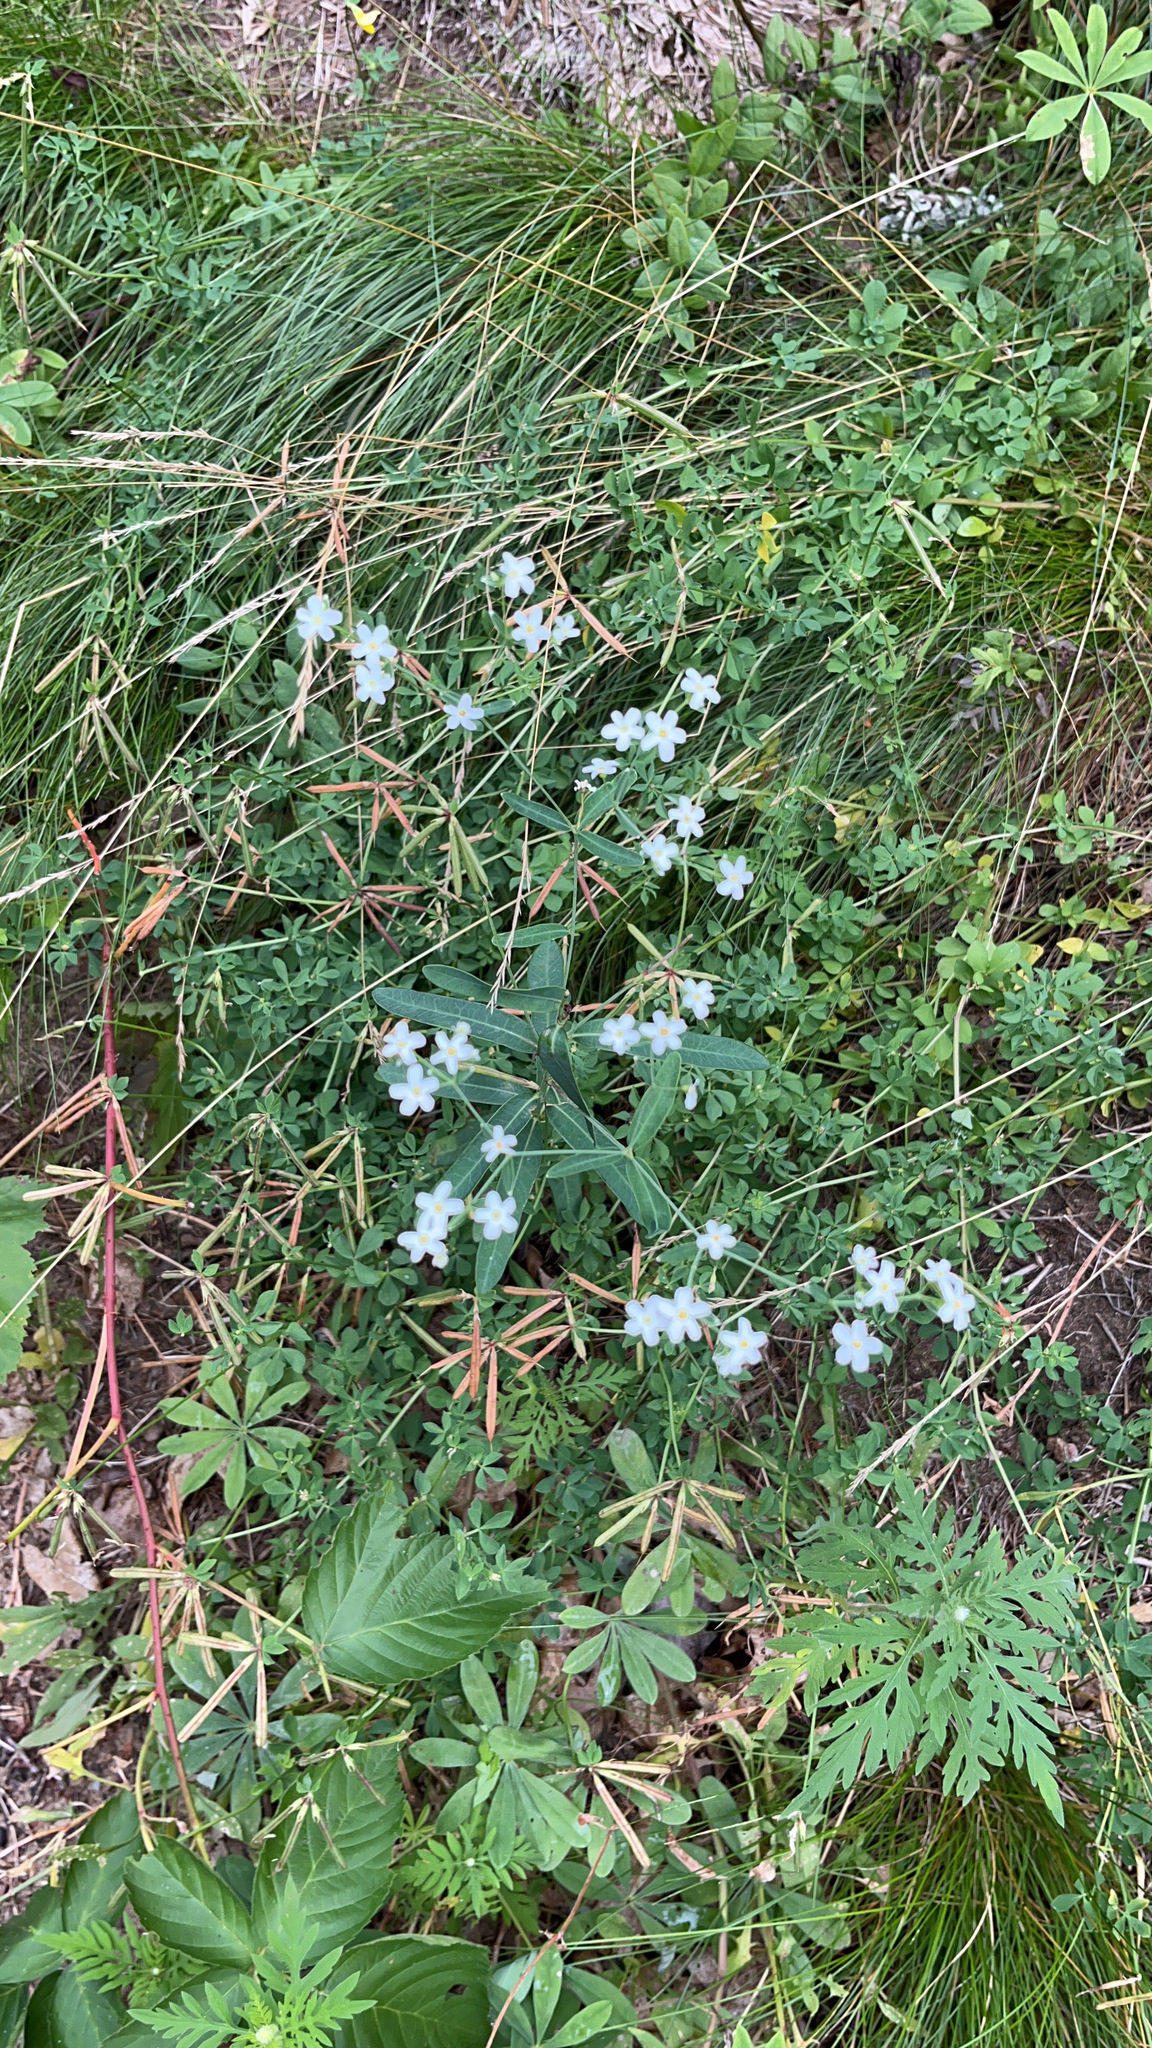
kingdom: Plantae
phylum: Tracheophyta
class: Magnoliopsida
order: Malpighiales
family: Euphorbiaceae
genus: Euphorbia
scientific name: Euphorbia corollata
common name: Flowering spurge
